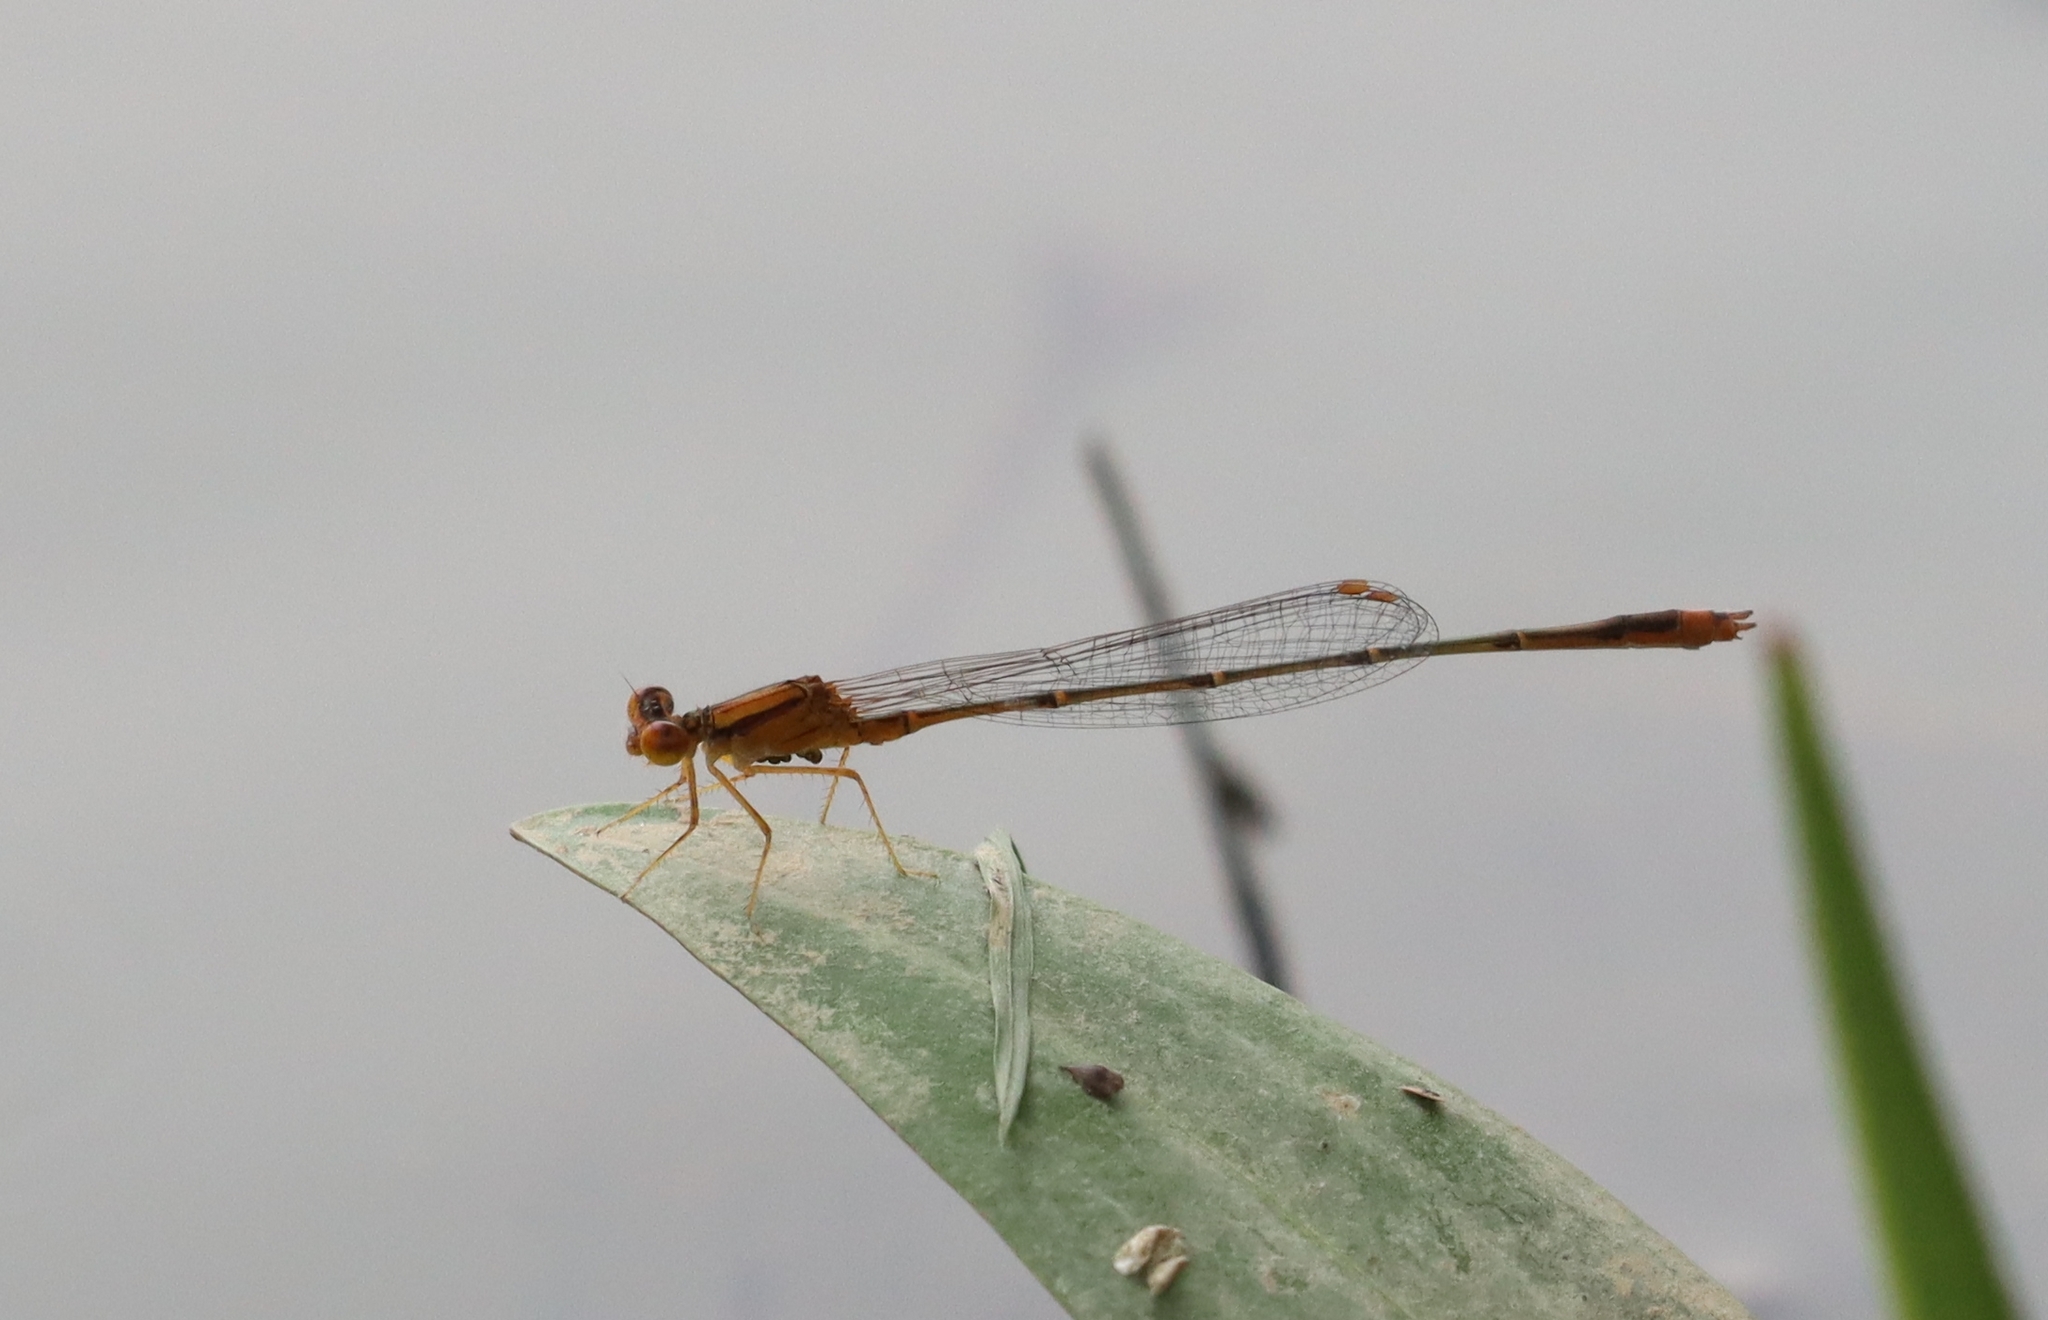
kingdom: Animalia
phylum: Arthropoda
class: Insecta
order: Odonata
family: Coenagrionidae
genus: Enallagma
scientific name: Enallagma signatum
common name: Orange bluet
